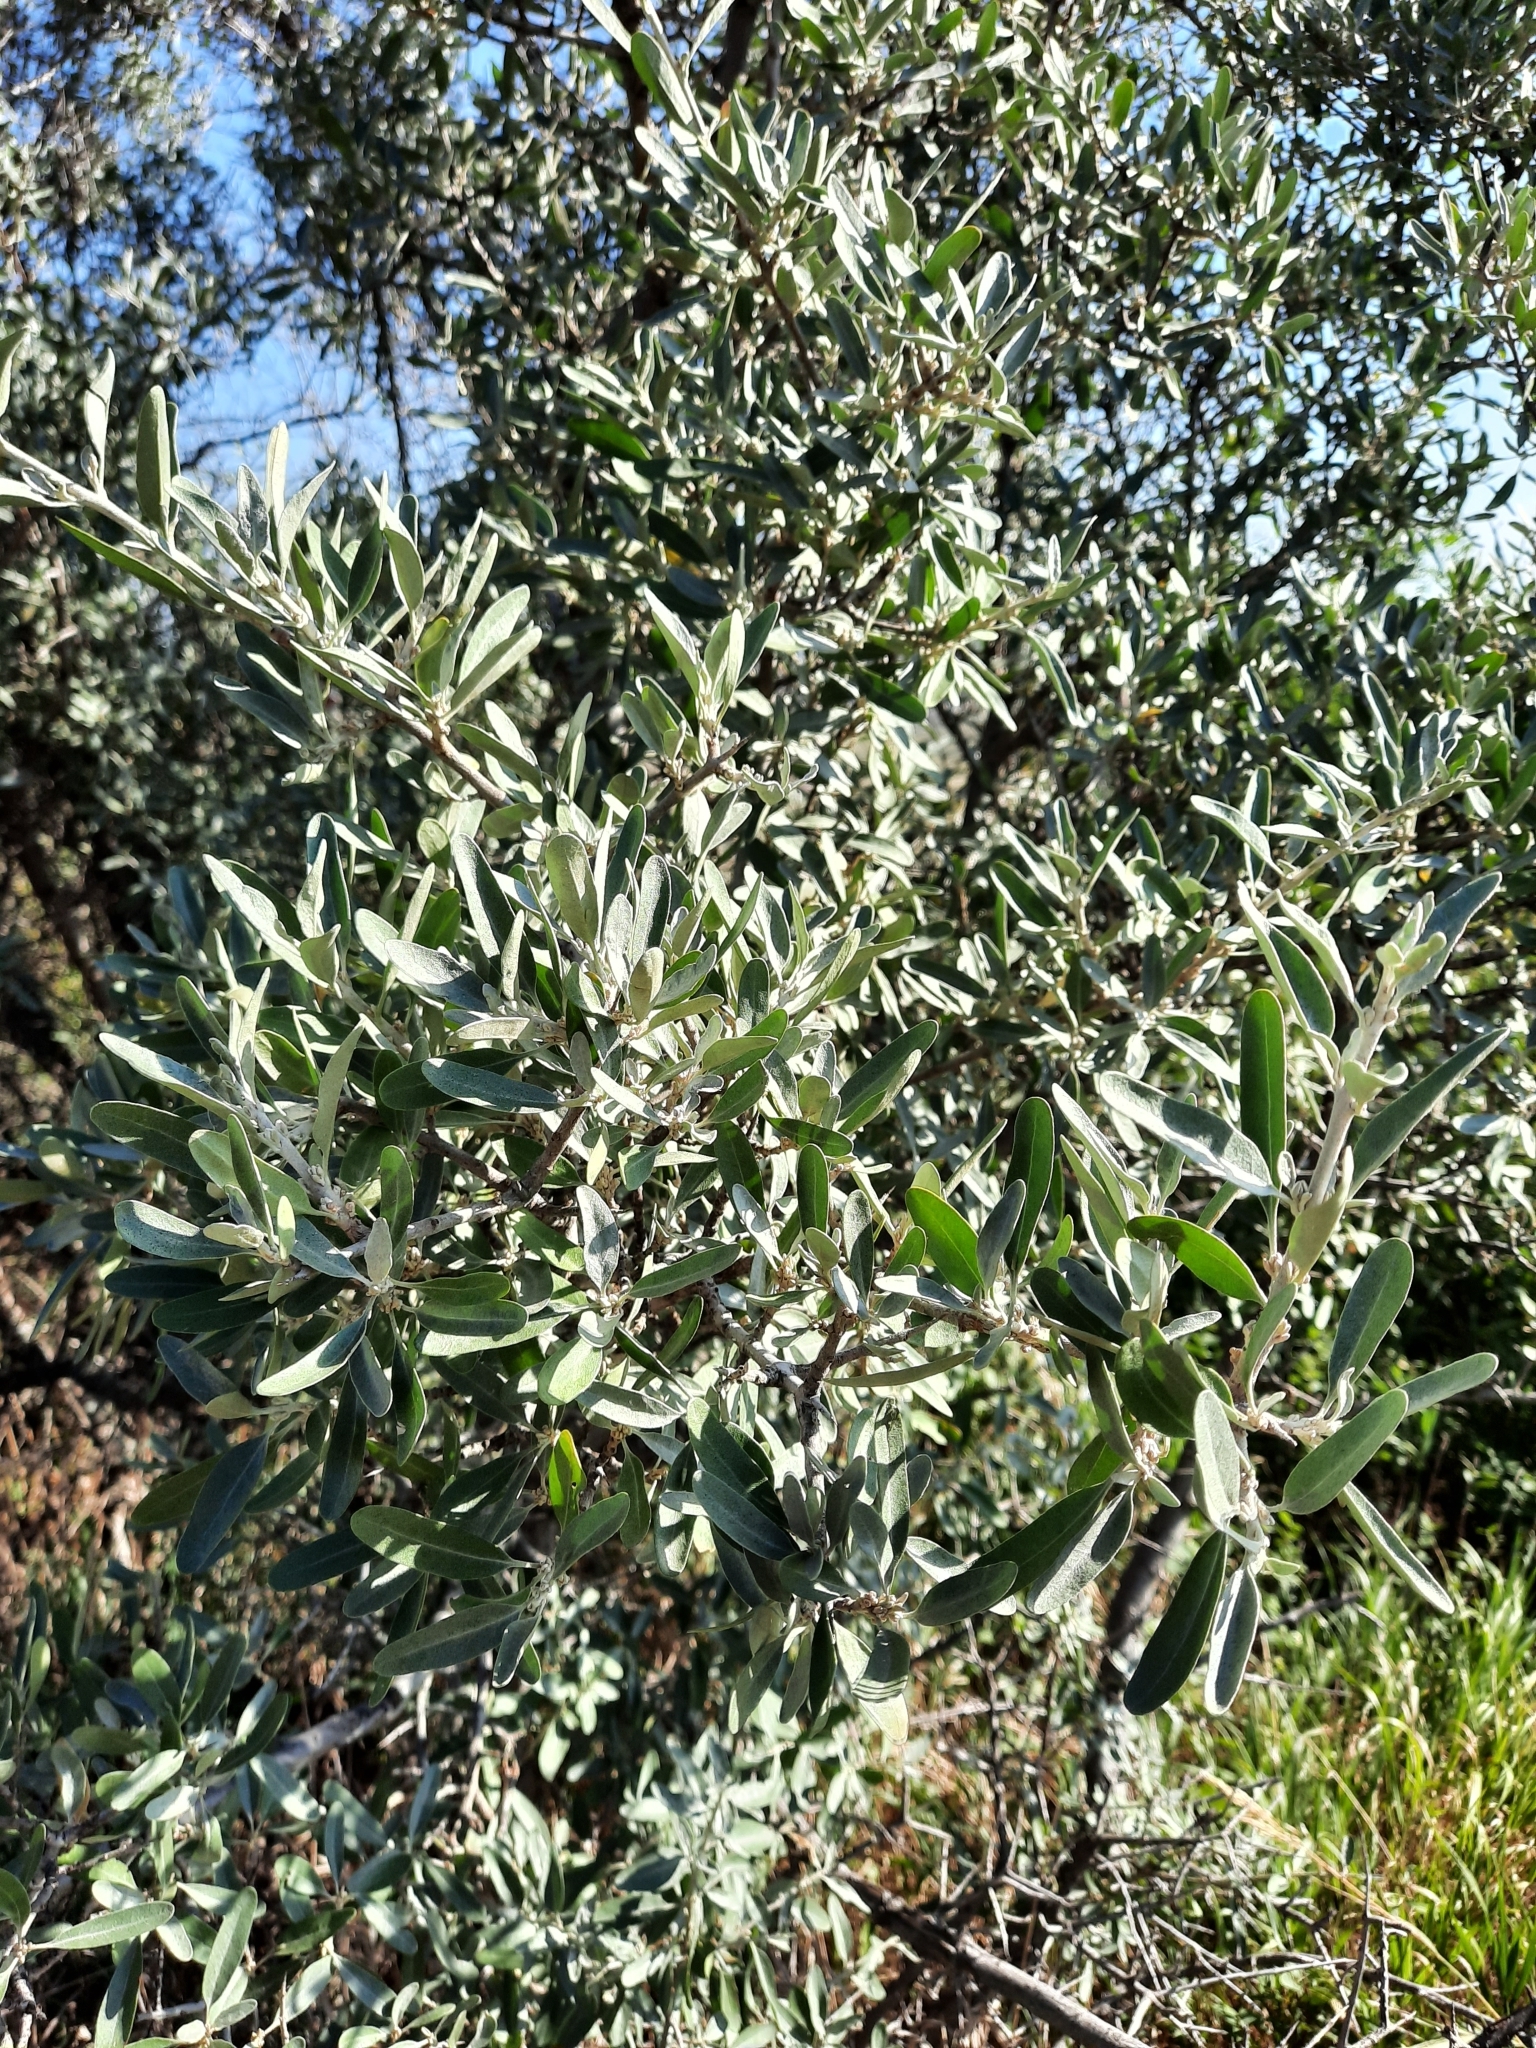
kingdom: Plantae
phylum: Tracheophyta
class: Magnoliopsida
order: Rosales
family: Elaeagnaceae
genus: Elaeagnus
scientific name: Elaeagnus angustifolia
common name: Russian olive
